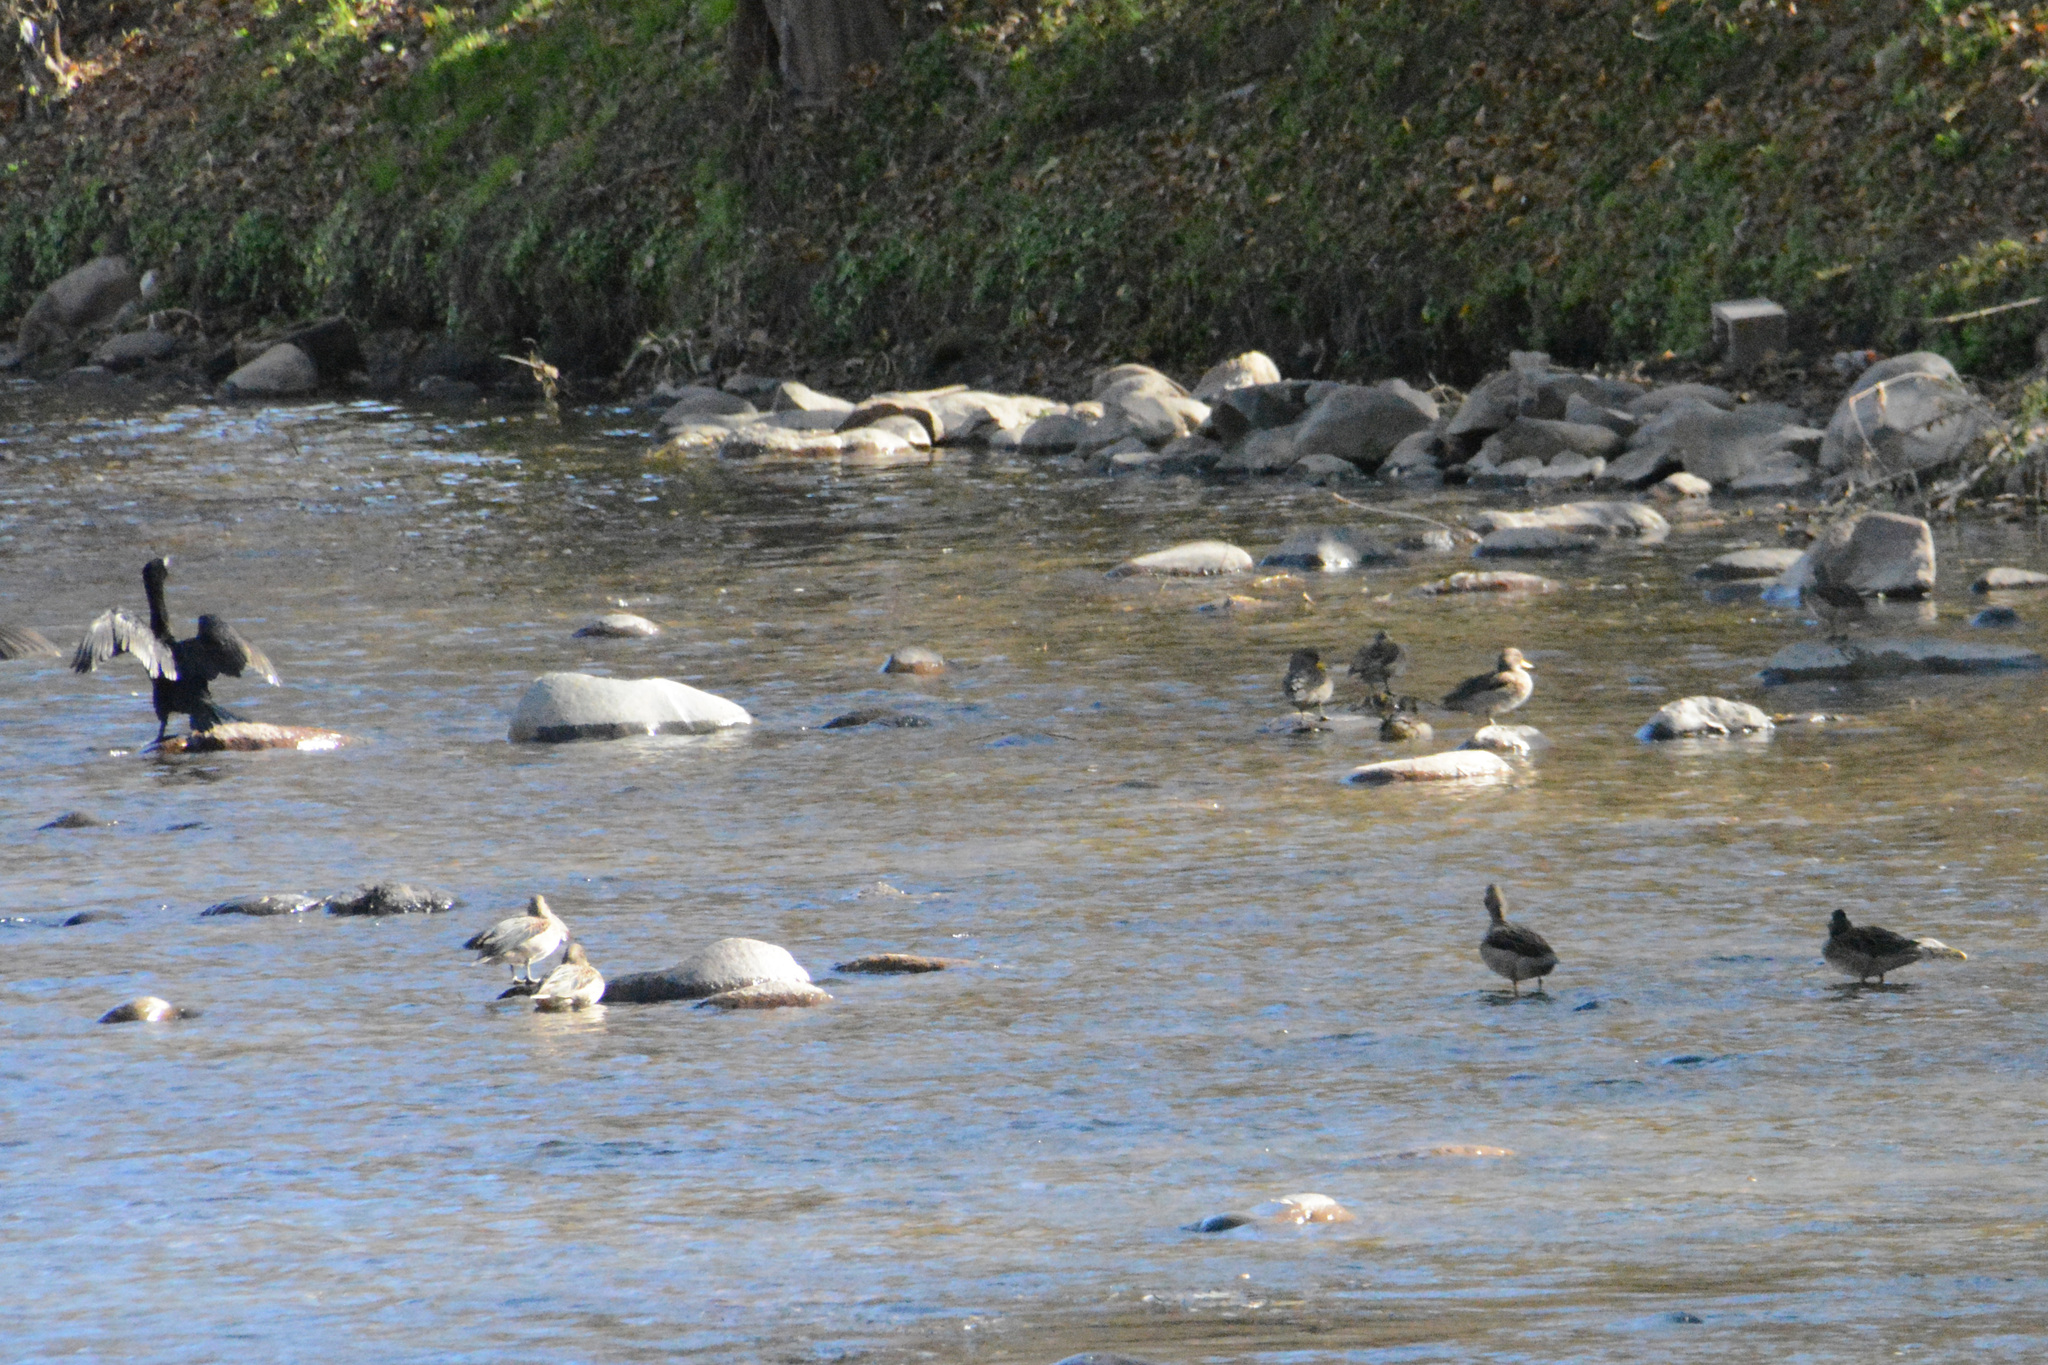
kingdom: Animalia
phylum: Chordata
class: Aves
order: Suliformes
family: Phalacrocoracidae
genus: Phalacrocorax
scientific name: Phalacrocorax brasilianus
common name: Neotropic cormorant
